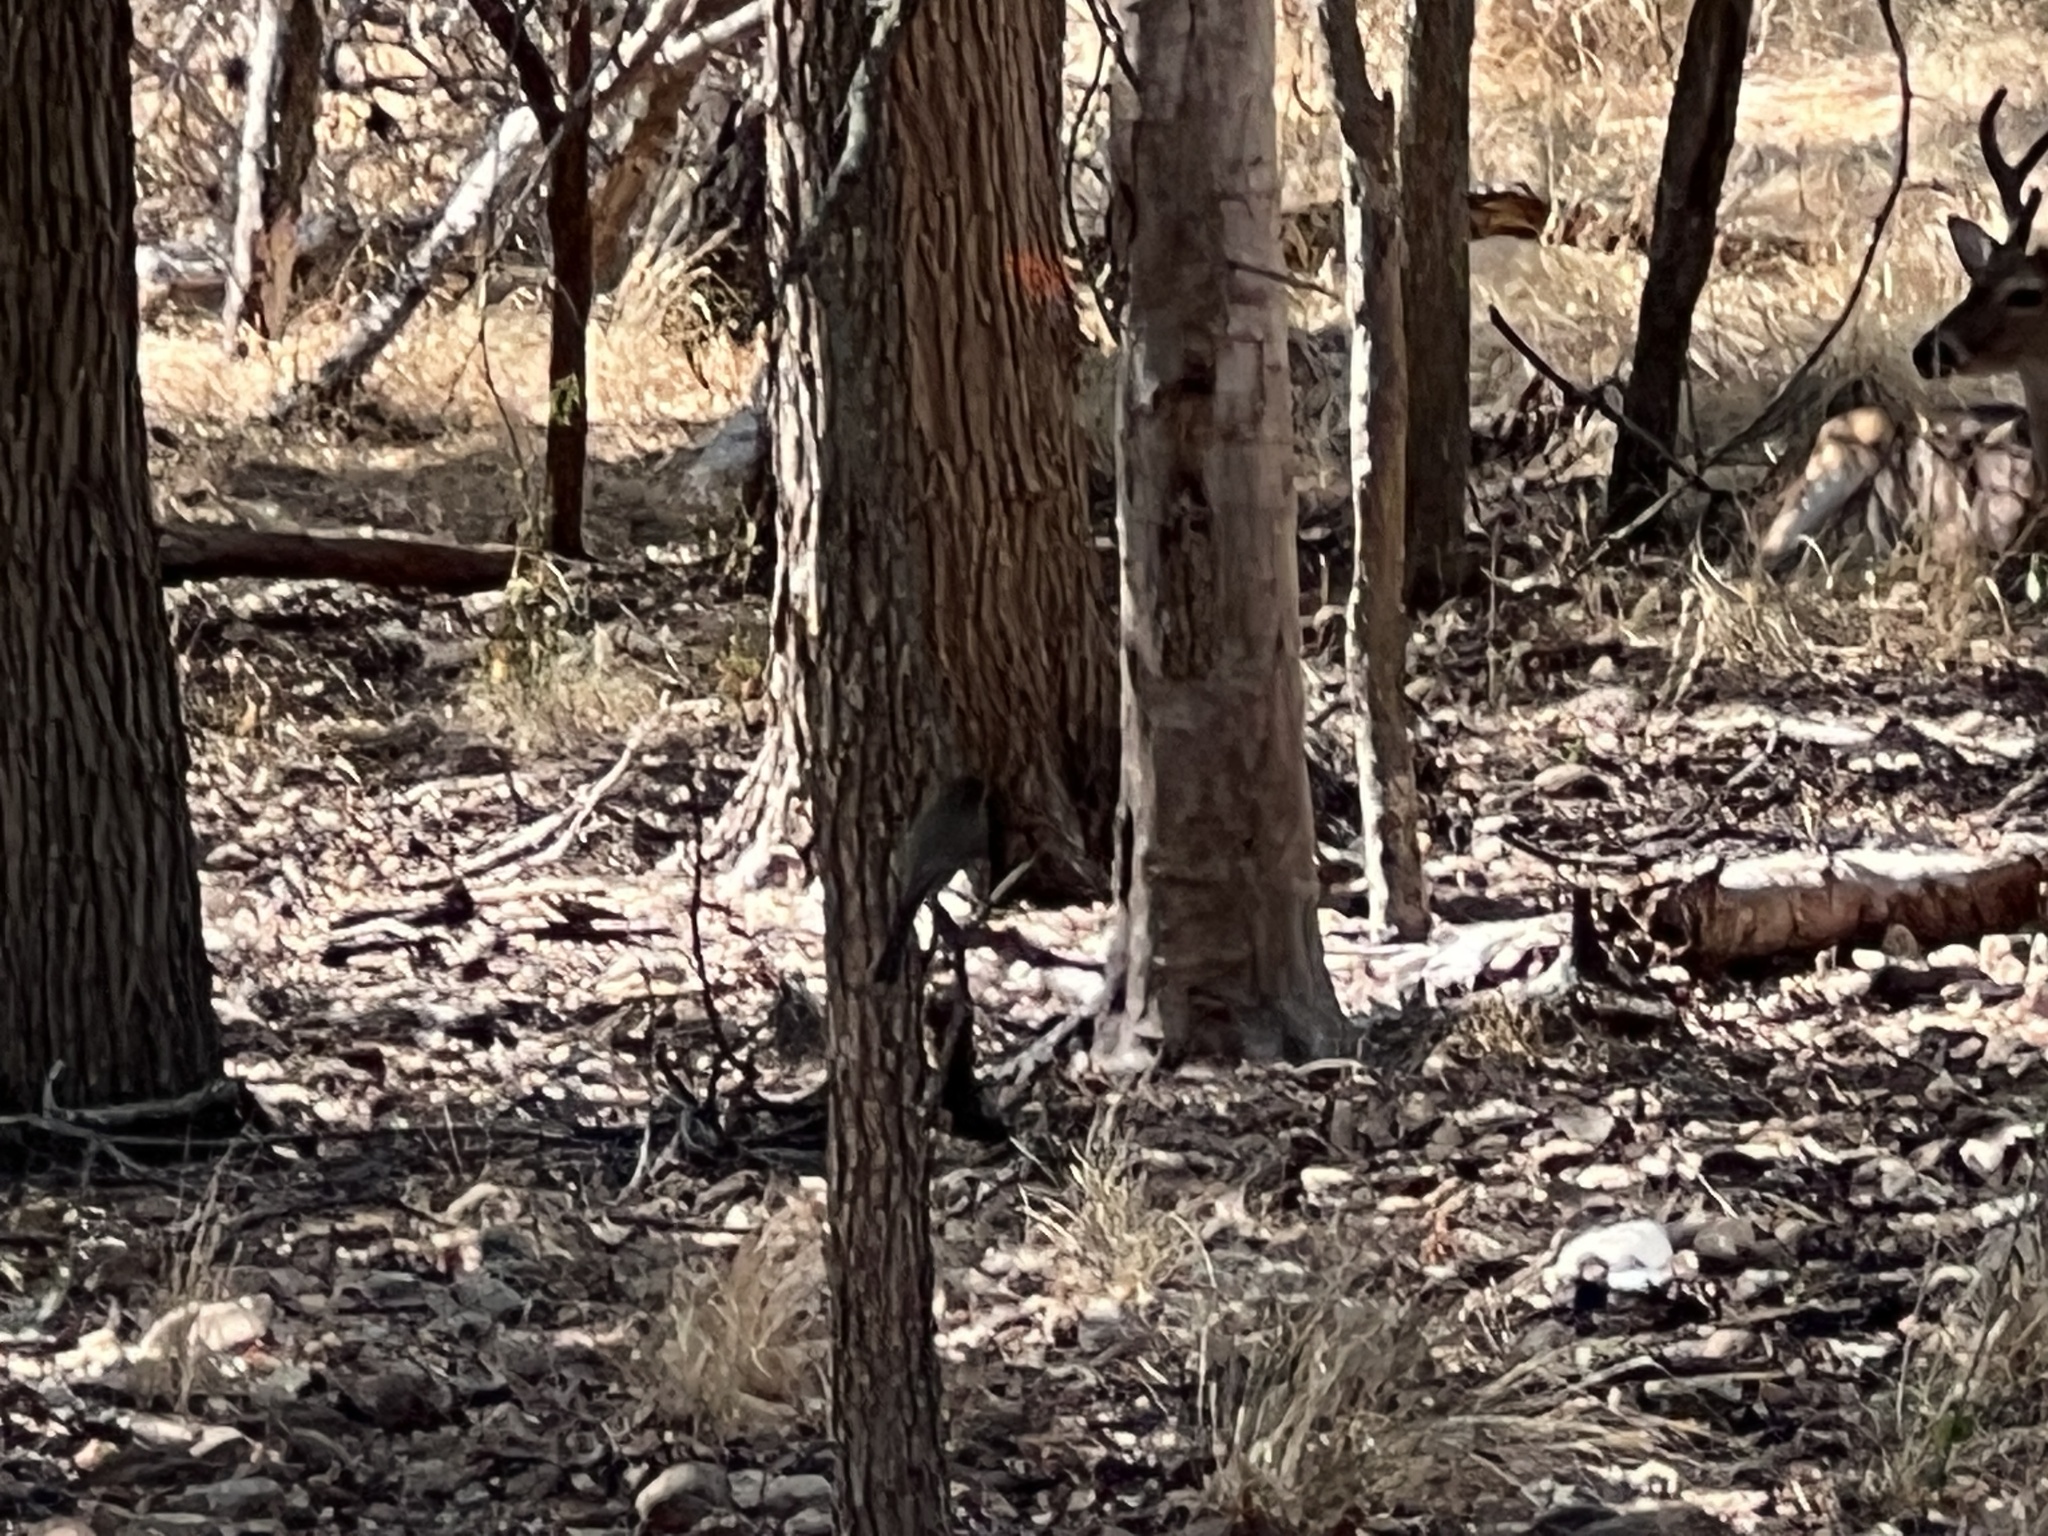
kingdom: Animalia
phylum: Chordata
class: Aves
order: Passeriformes
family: Tyrannidae
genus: Sayornis
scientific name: Sayornis phoebe
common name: Eastern phoebe
